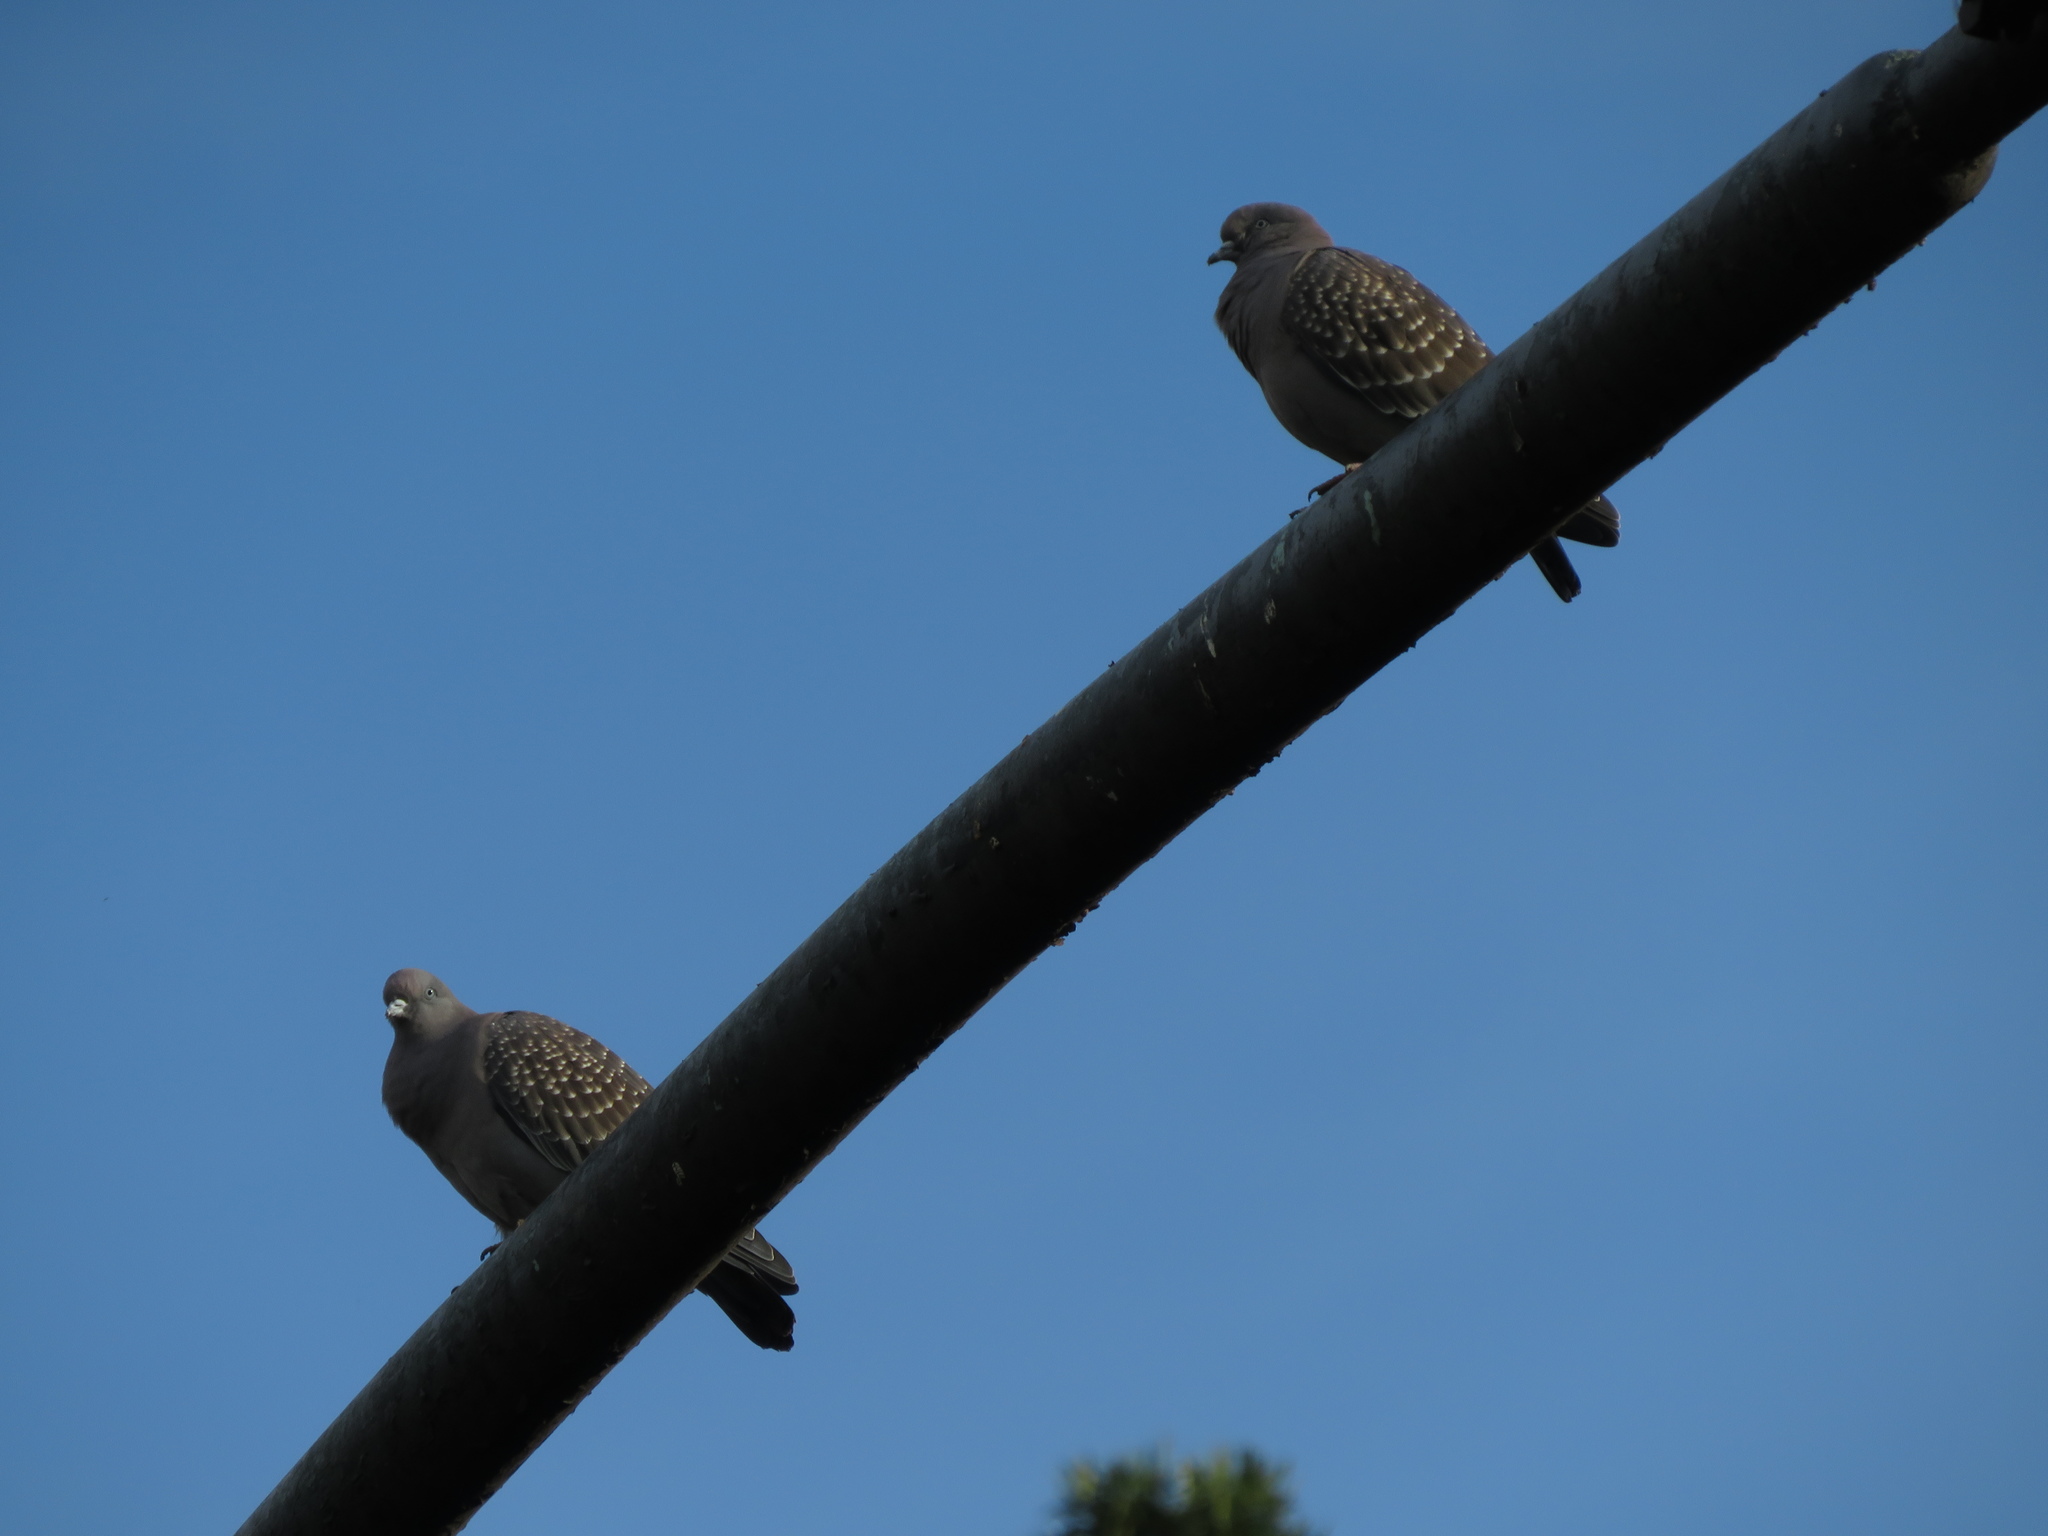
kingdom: Animalia
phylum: Chordata
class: Aves
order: Columbiformes
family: Columbidae
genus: Patagioenas
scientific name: Patagioenas maculosa
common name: Spot-winged pigeon
